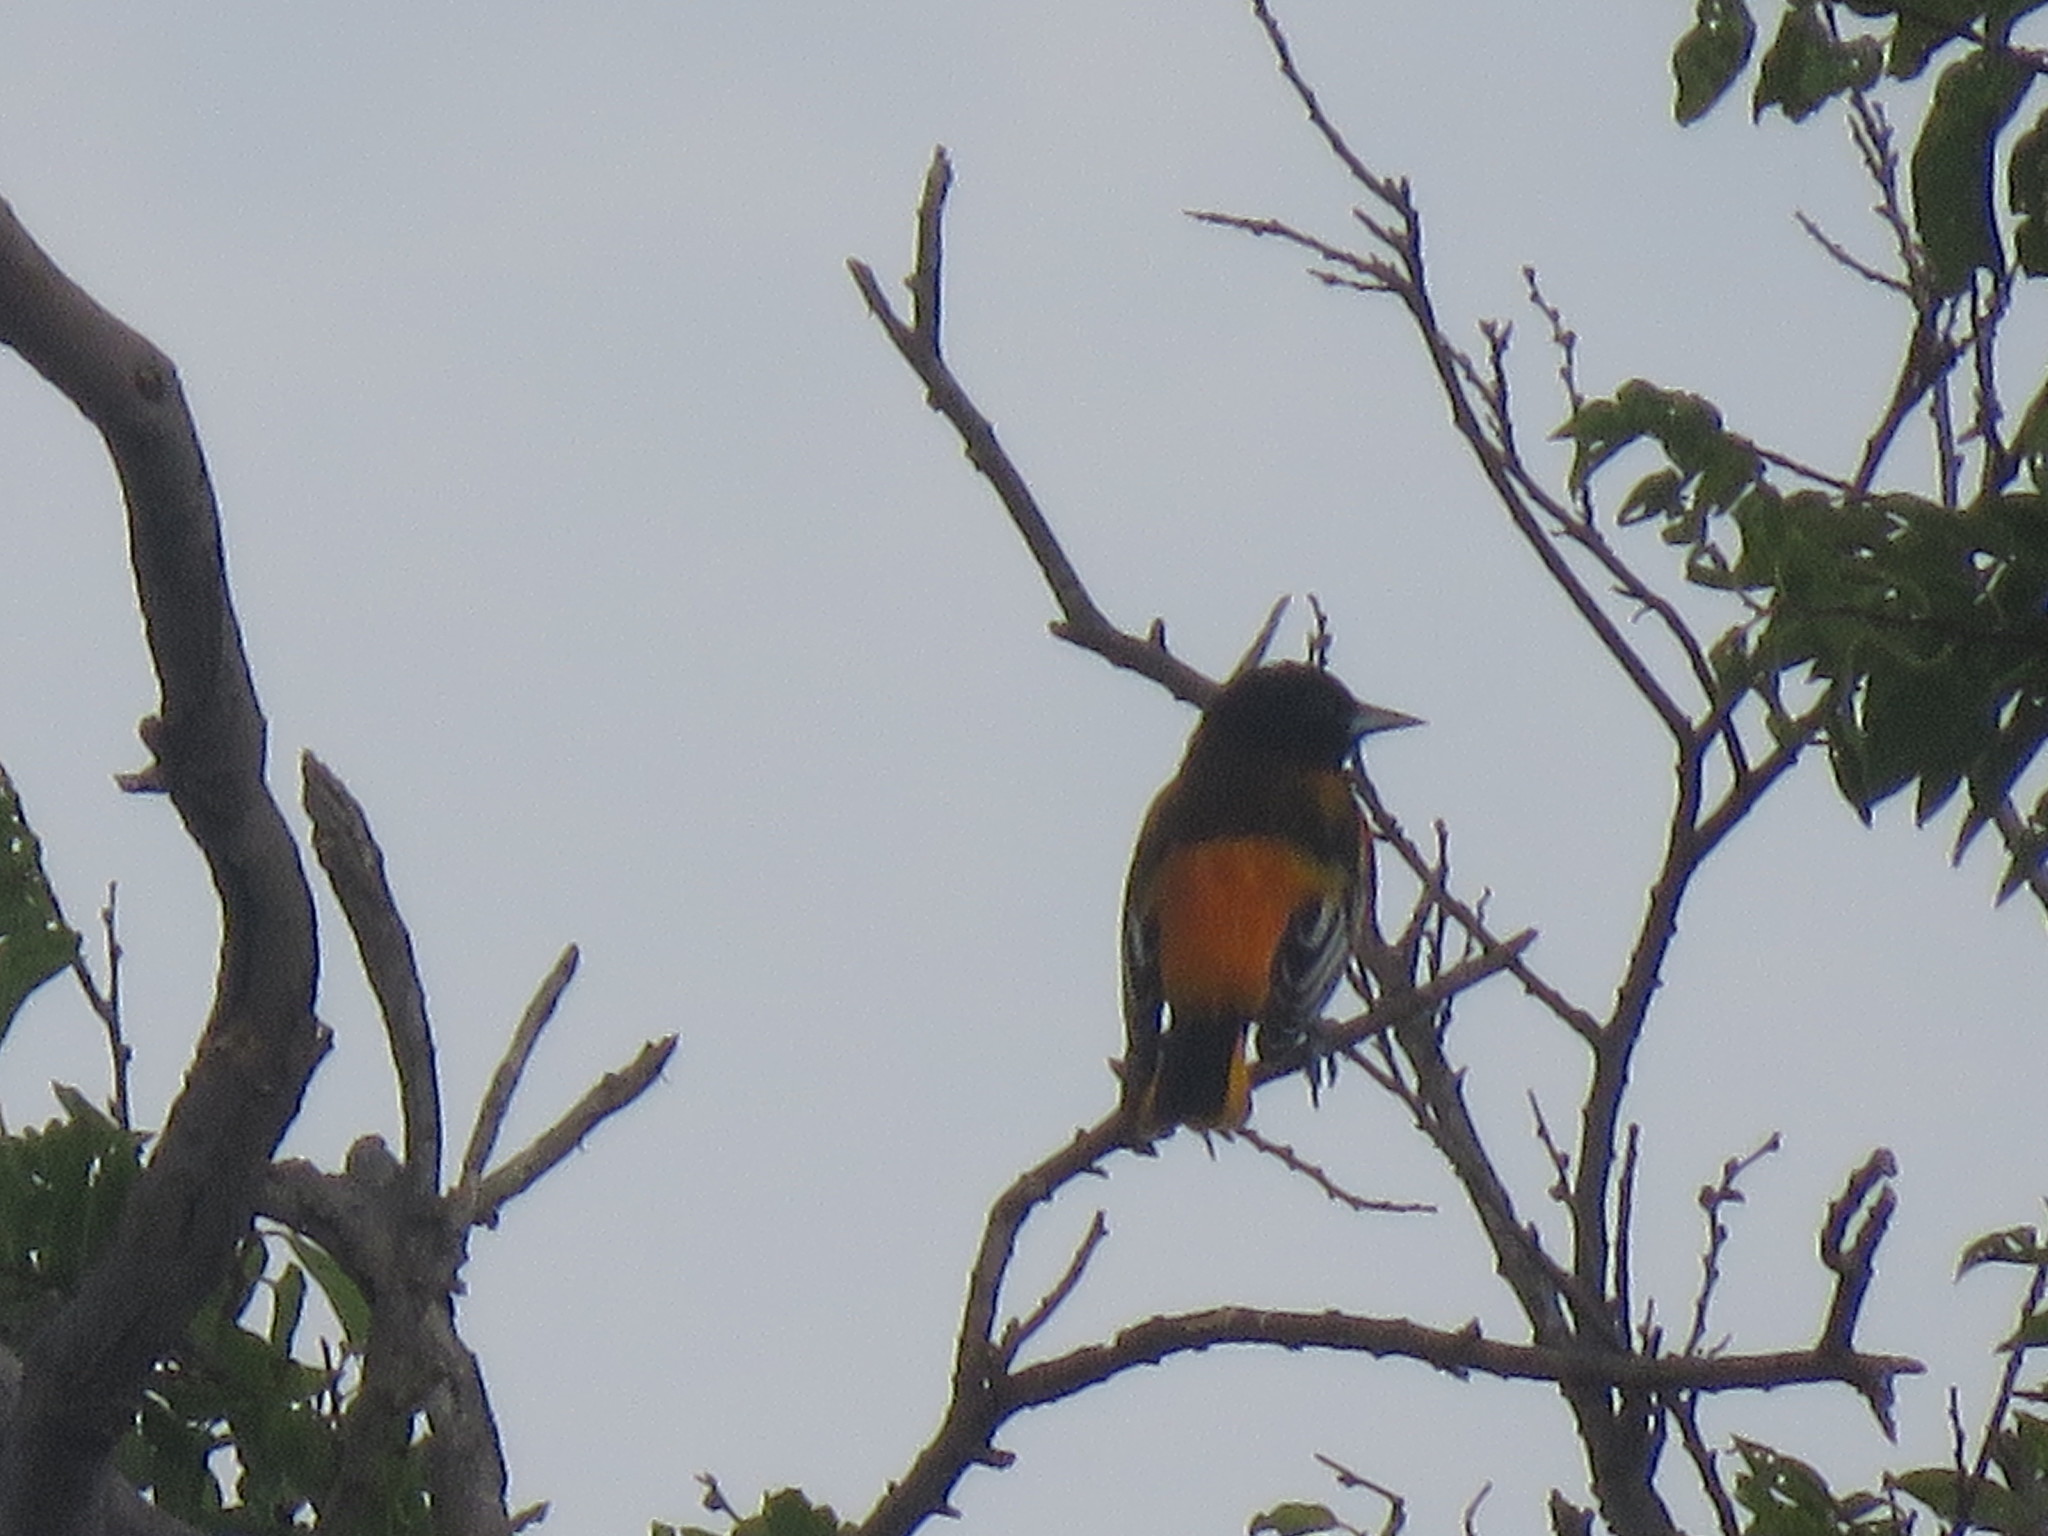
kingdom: Animalia
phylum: Chordata
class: Aves
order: Passeriformes
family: Icteridae
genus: Icterus
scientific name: Icterus galbula
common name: Baltimore oriole
